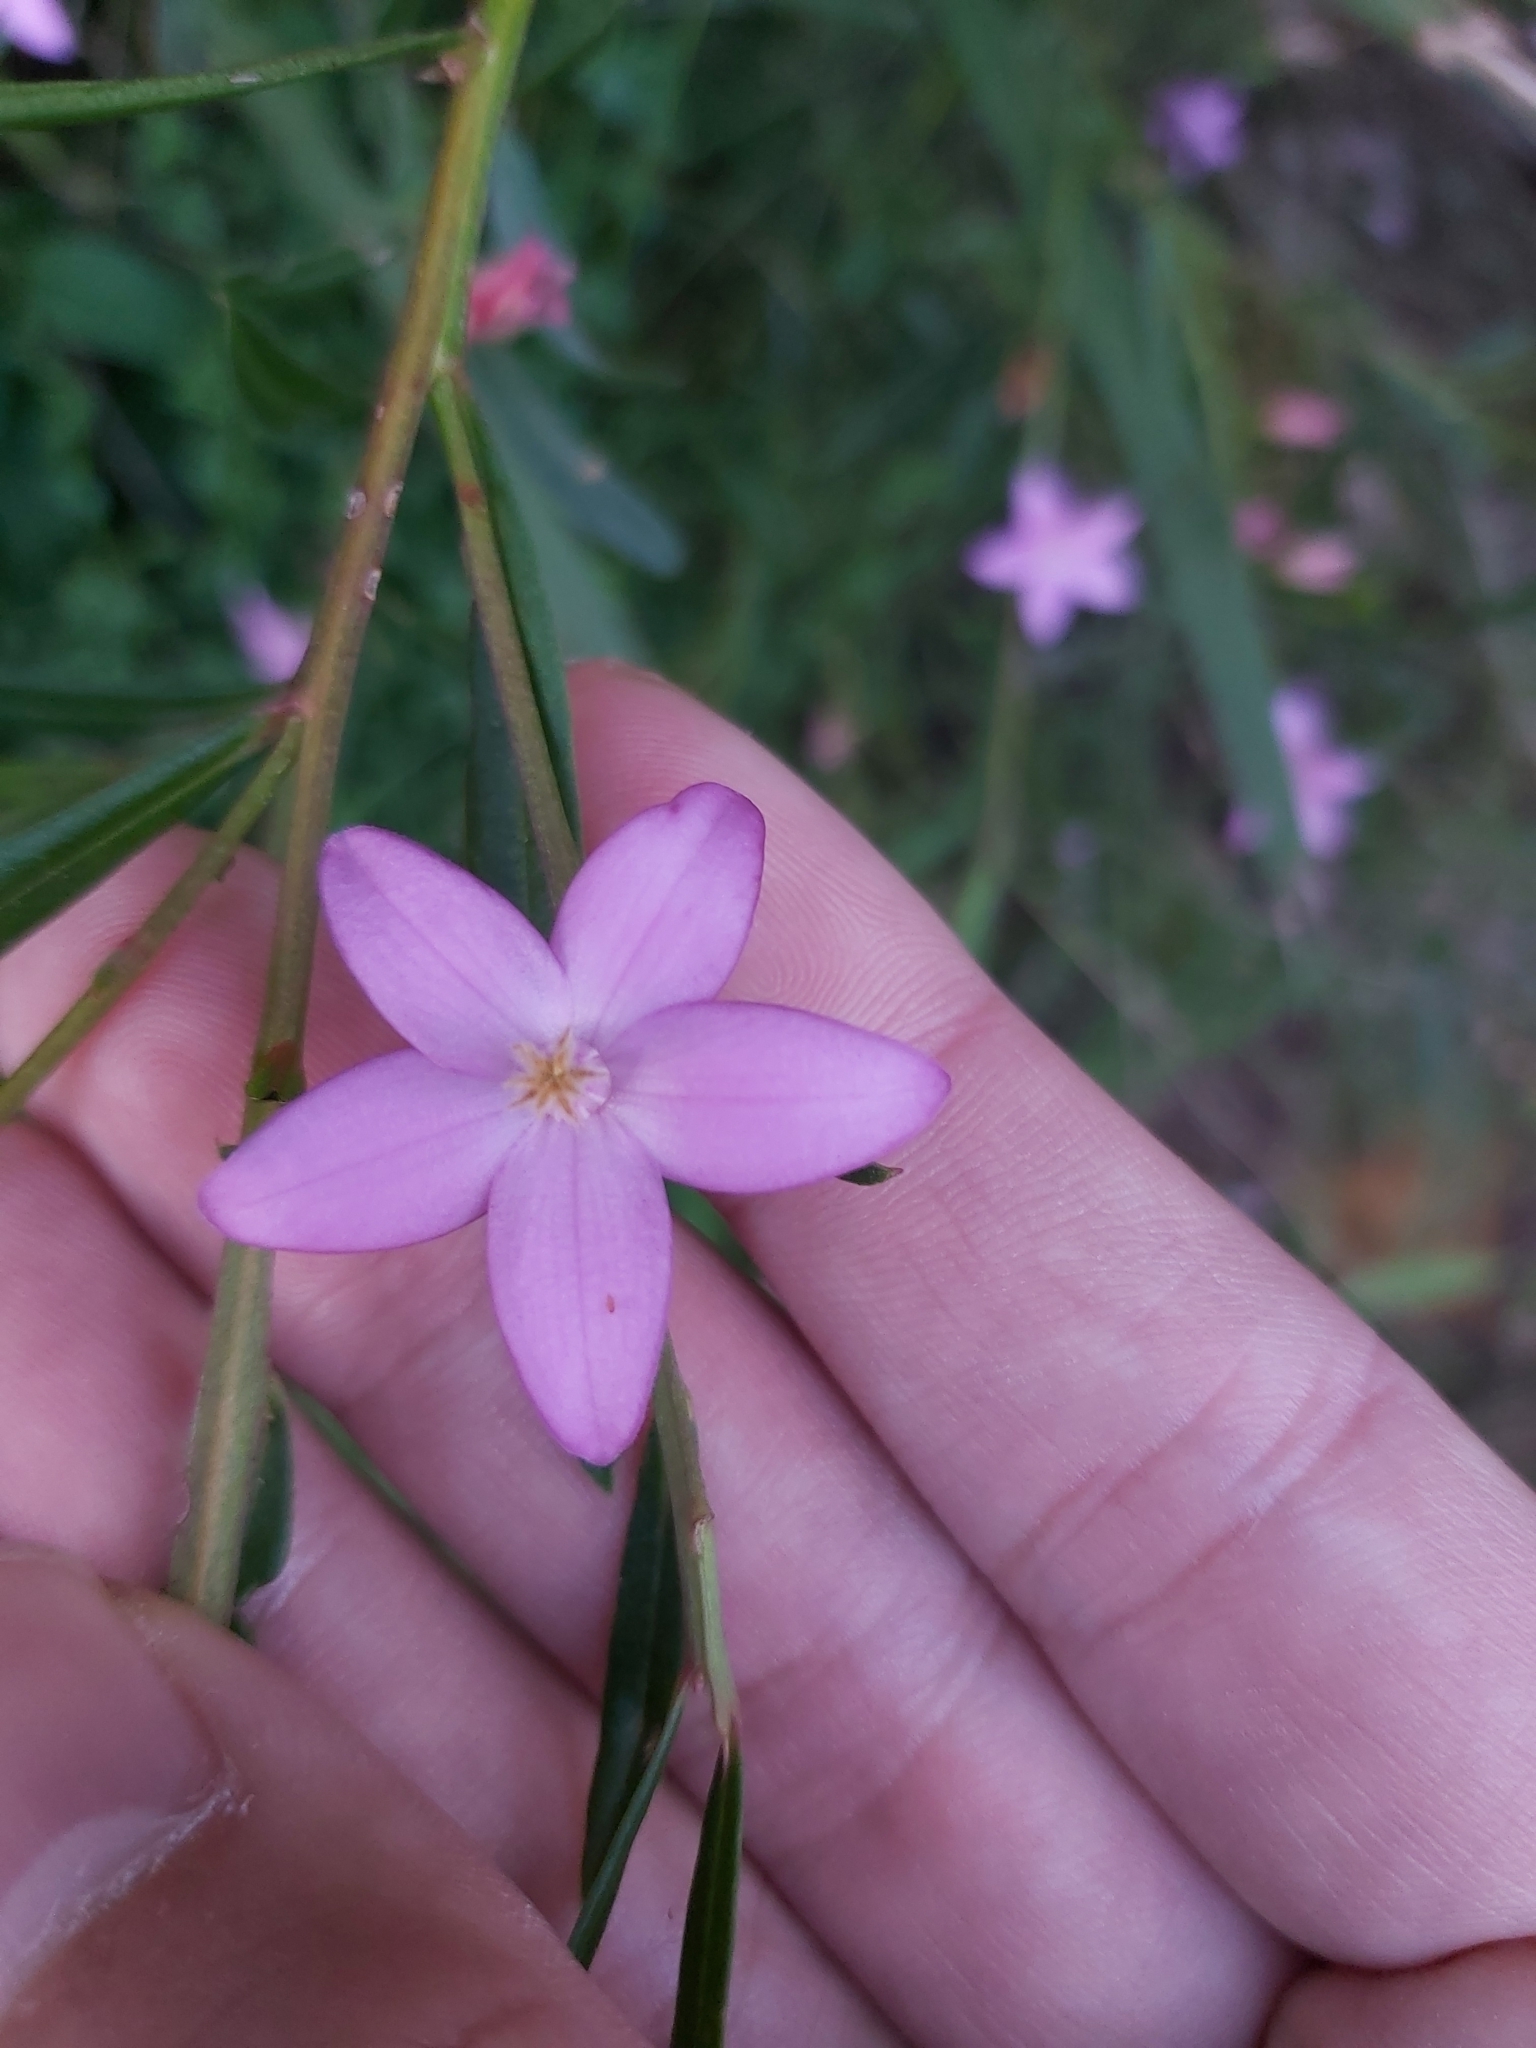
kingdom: Plantae
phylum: Tracheophyta
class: Magnoliopsida
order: Sapindales
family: Rutaceae
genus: Crowea
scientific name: Crowea saligna
